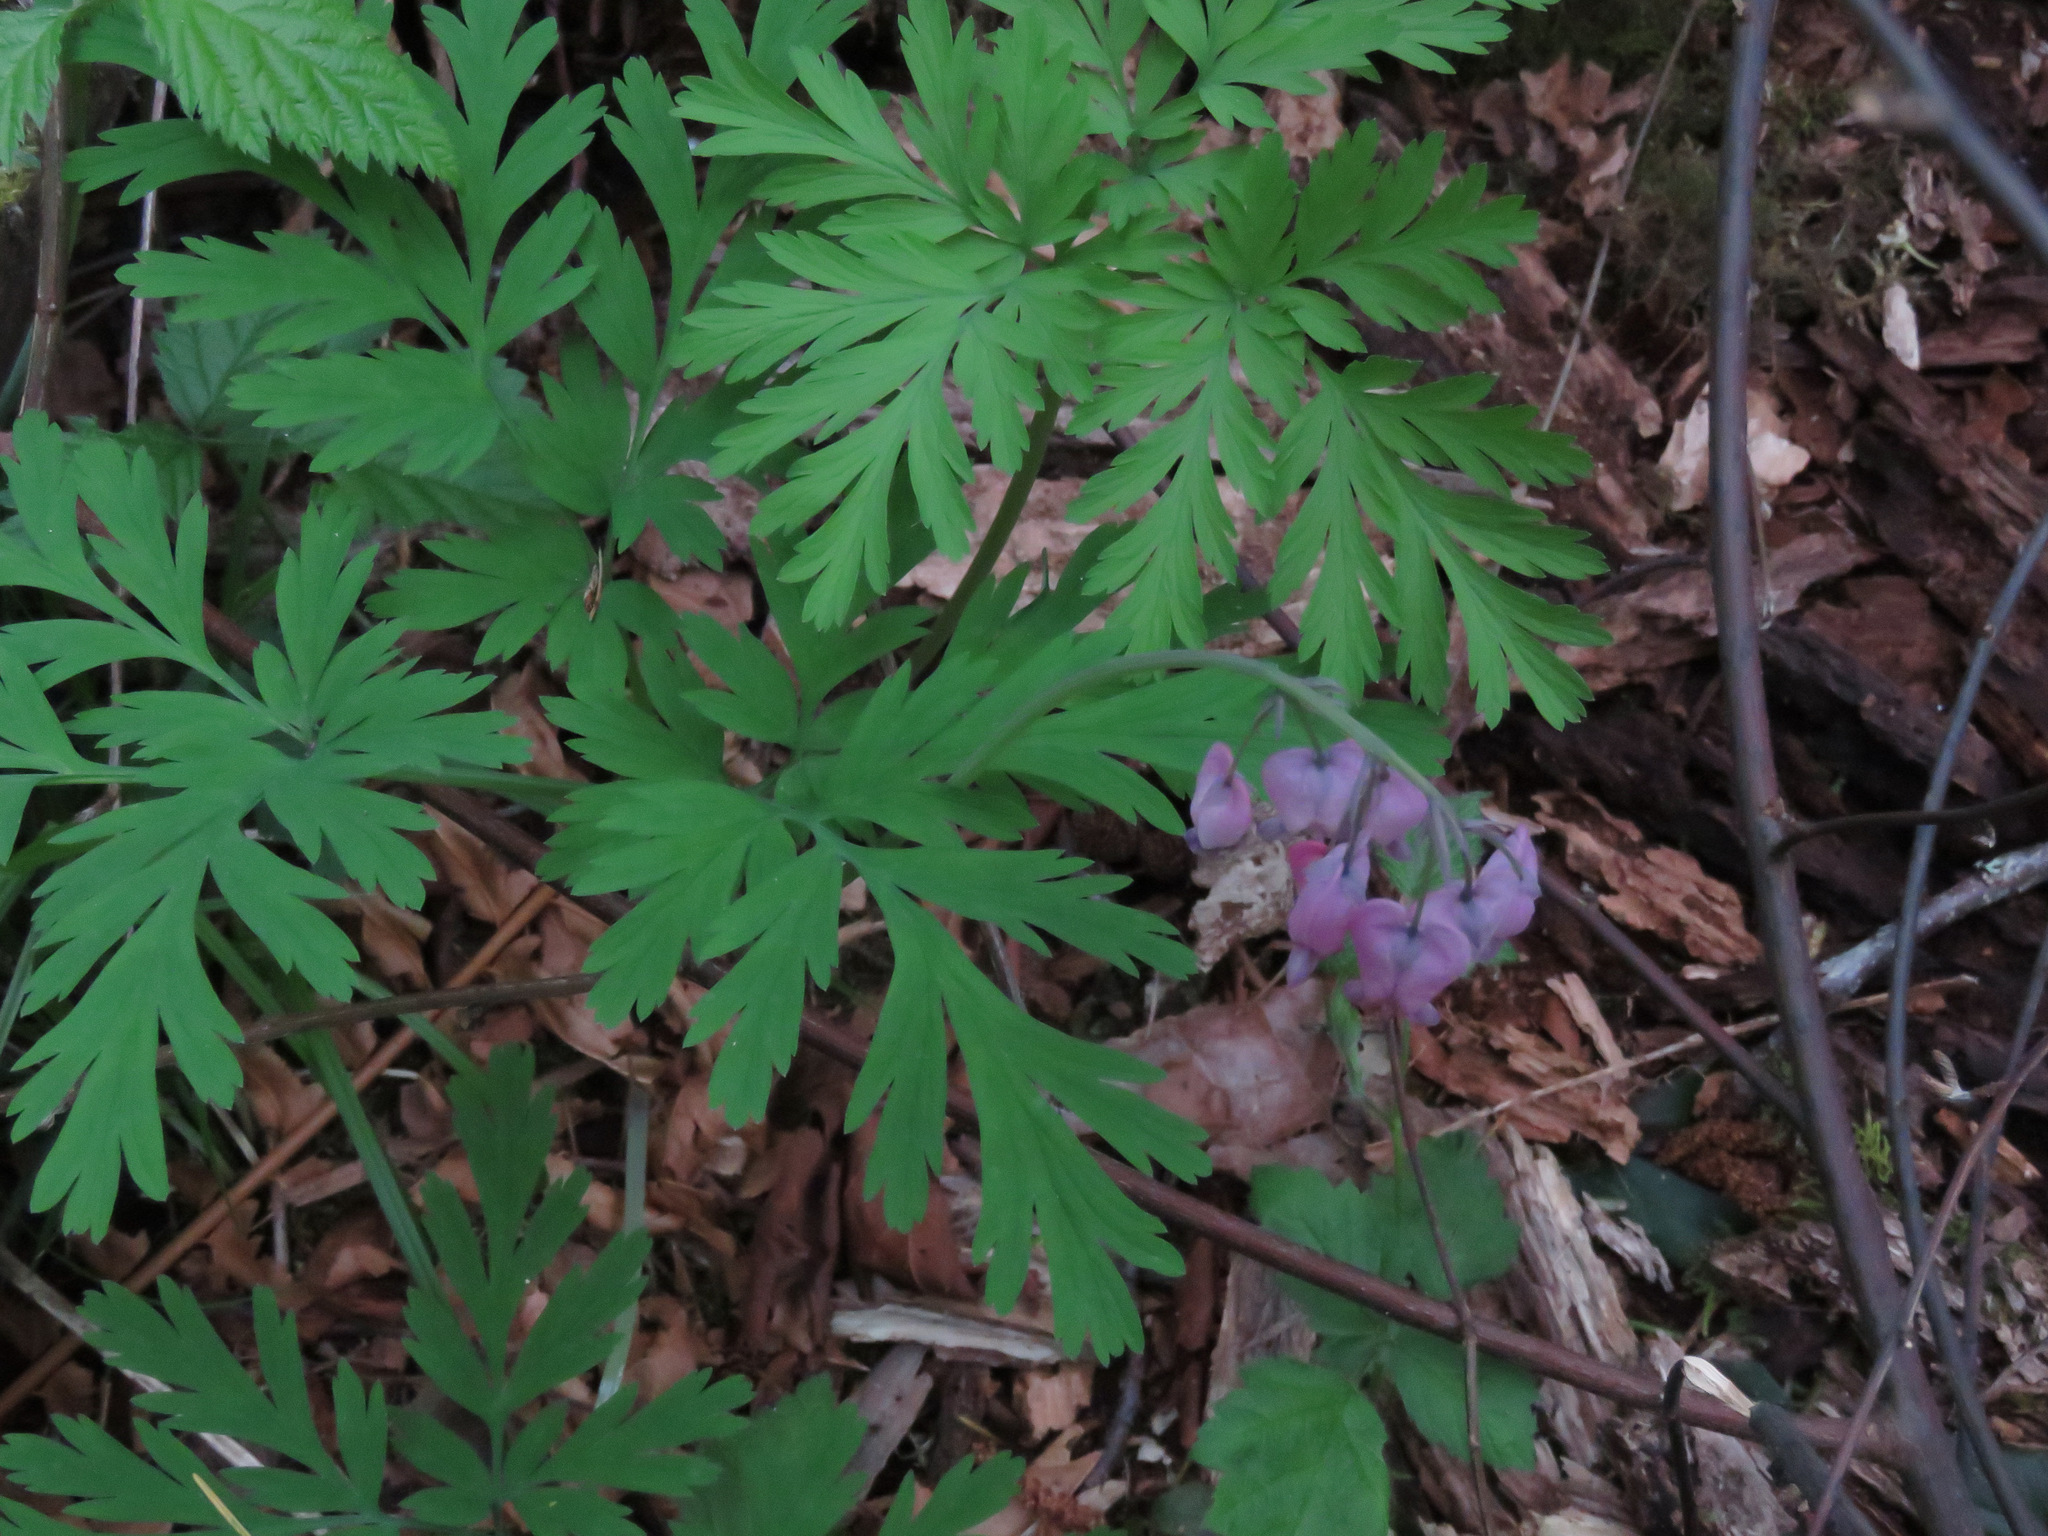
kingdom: Plantae
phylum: Tracheophyta
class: Magnoliopsida
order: Ranunculales
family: Papaveraceae
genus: Dicentra
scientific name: Dicentra formosa
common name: Bleeding-heart
